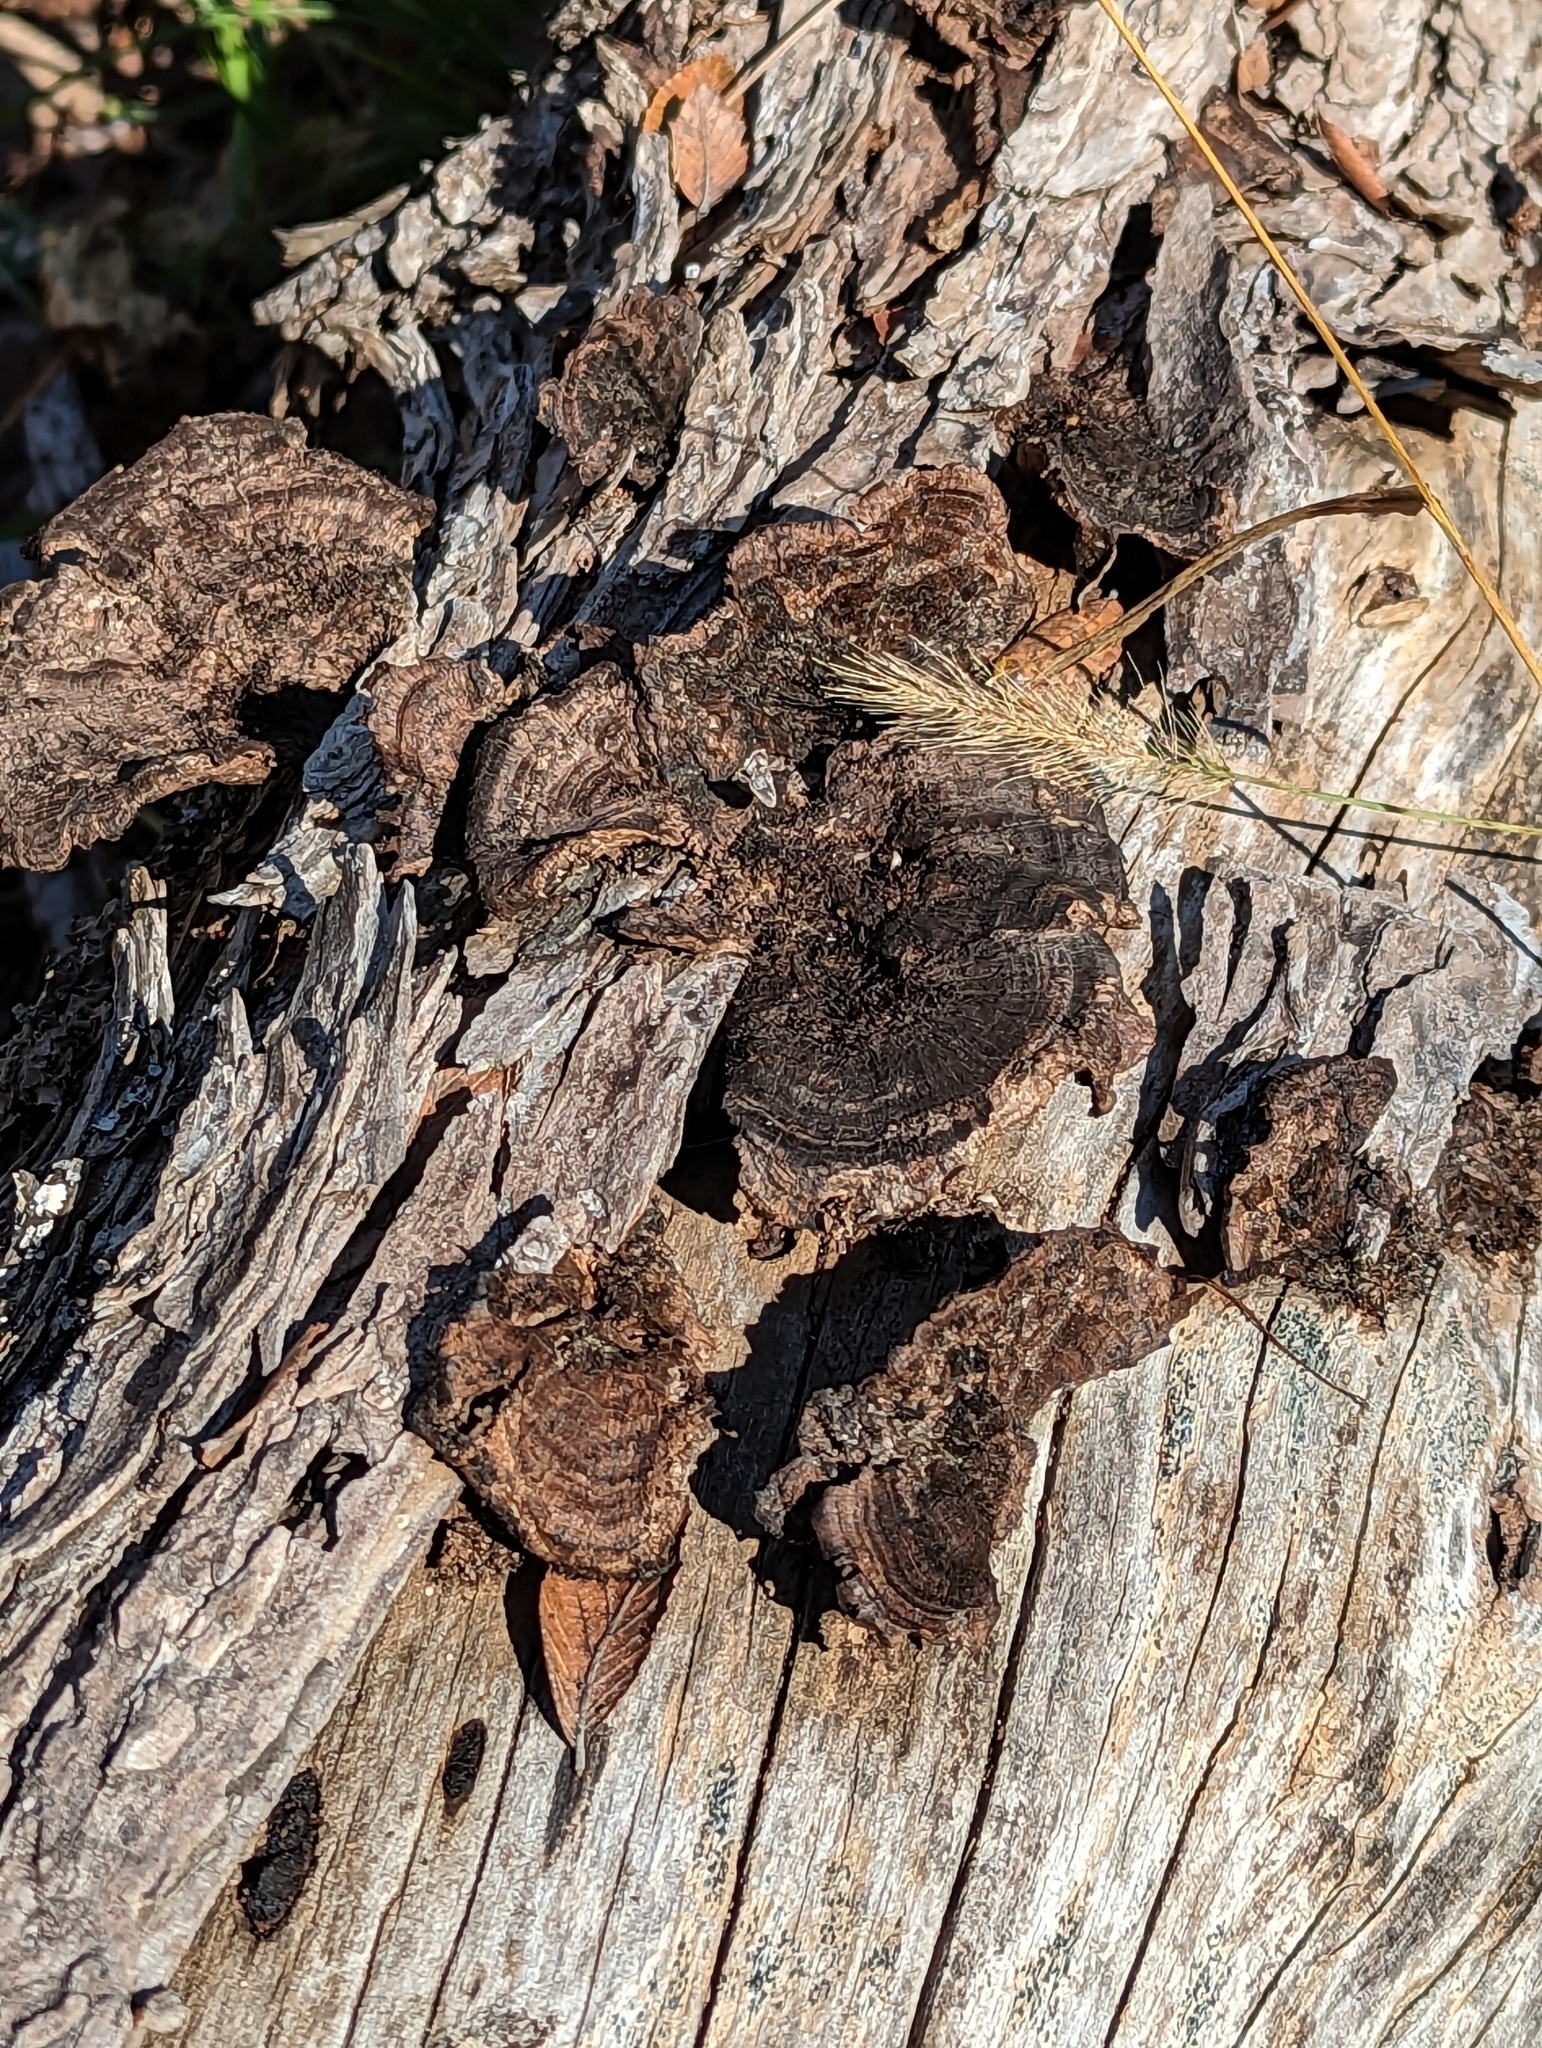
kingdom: Fungi
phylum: Basidiomycota
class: Agaricomycetes
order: Polyporales
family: Cerrenaceae
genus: Cerrena
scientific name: Cerrena hydnoides
